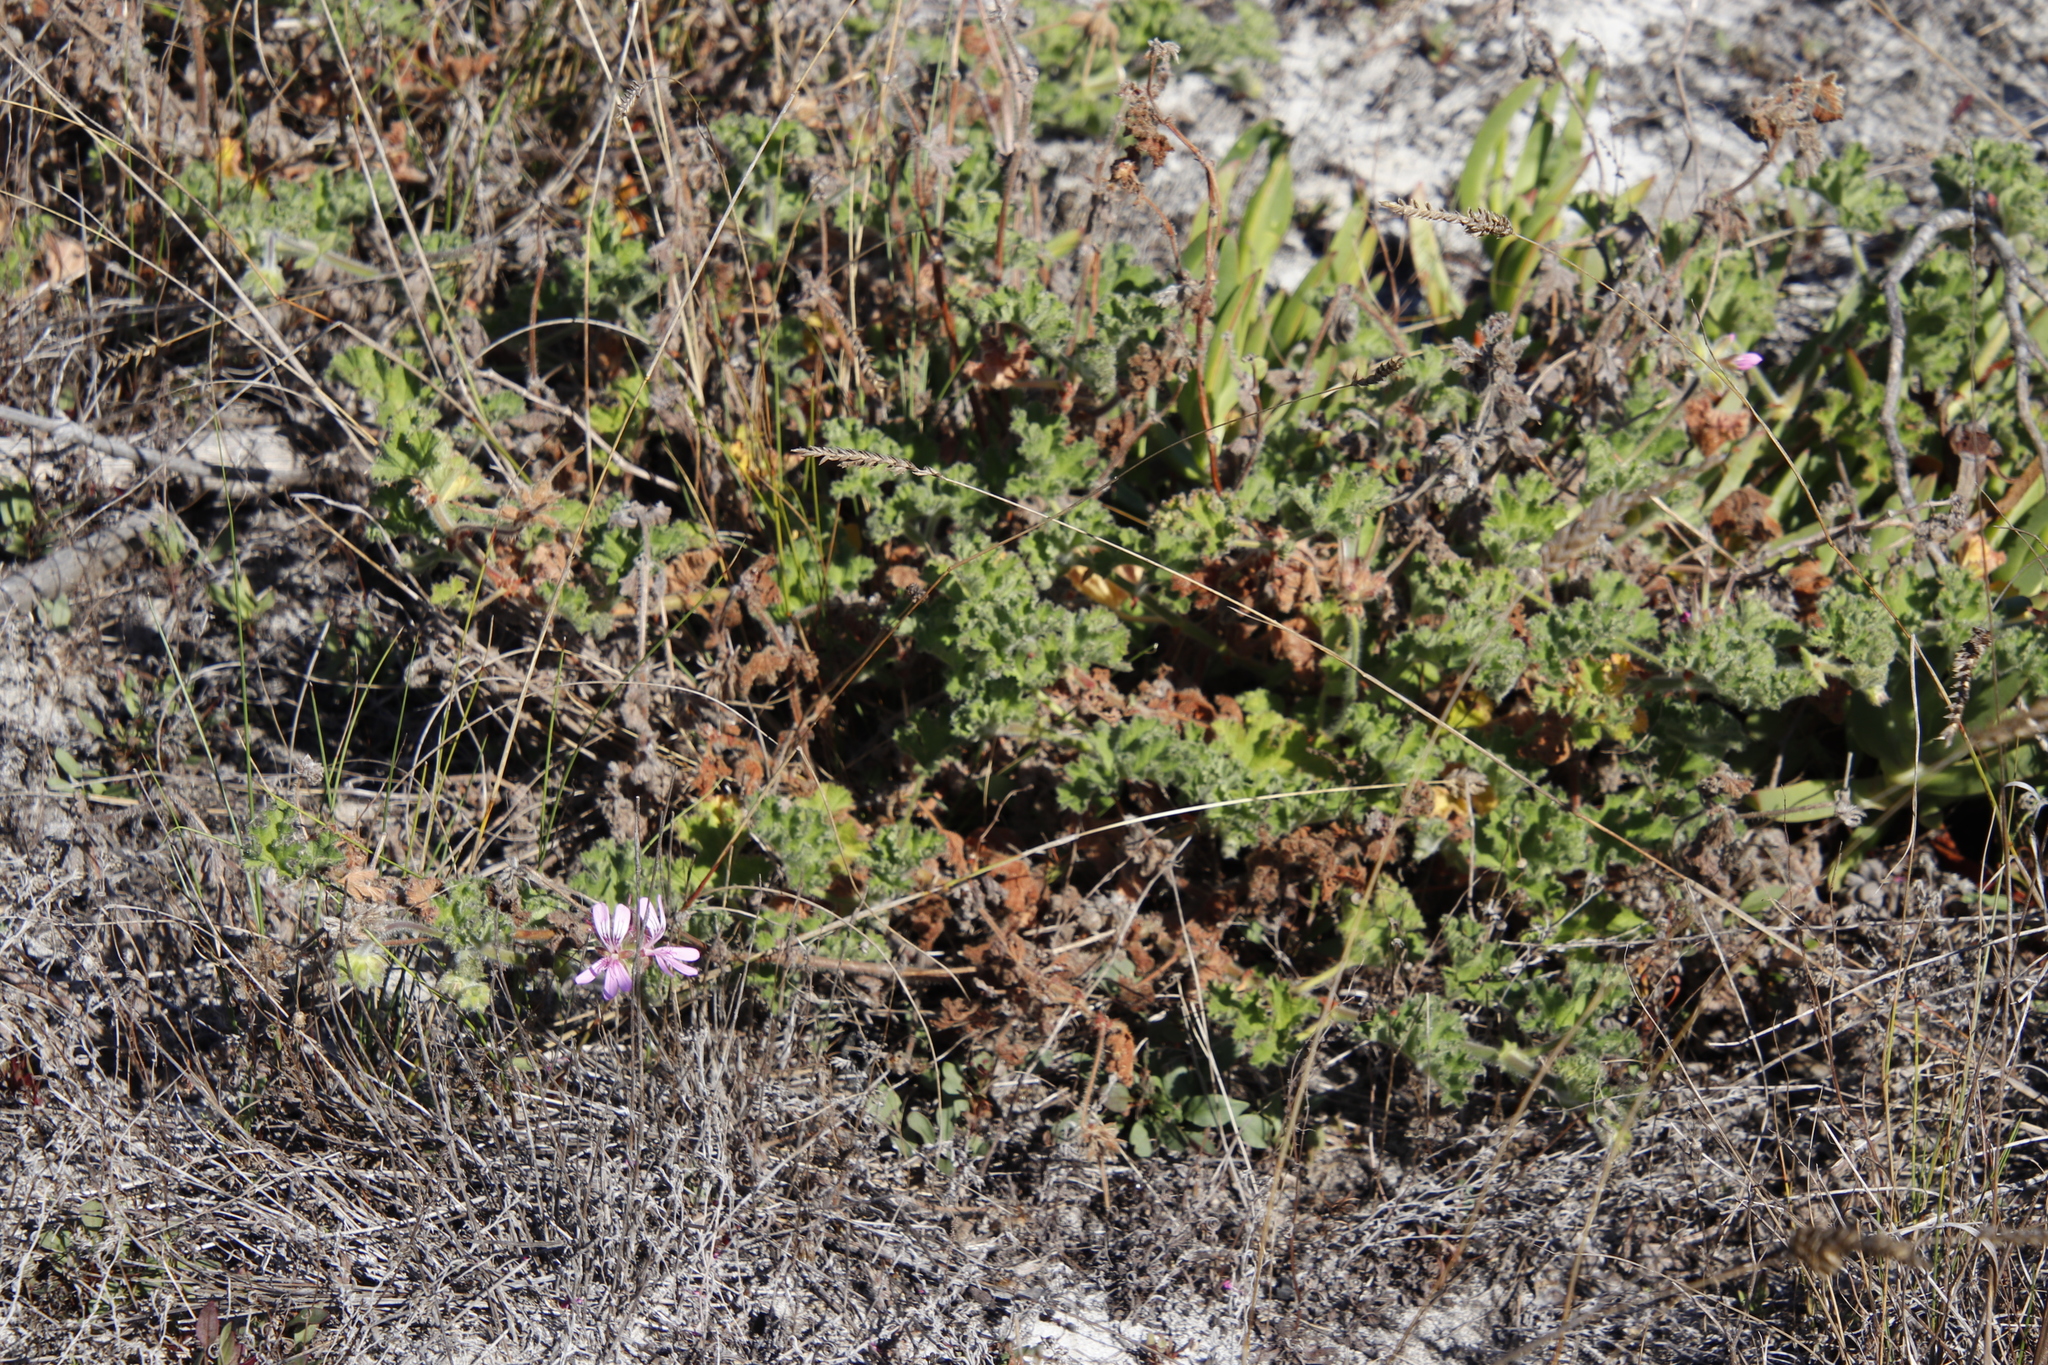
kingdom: Plantae
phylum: Tracheophyta
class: Magnoliopsida
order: Geraniales
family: Geraniaceae
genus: Pelargonium
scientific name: Pelargonium capitatum
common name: Rose scented geranium
